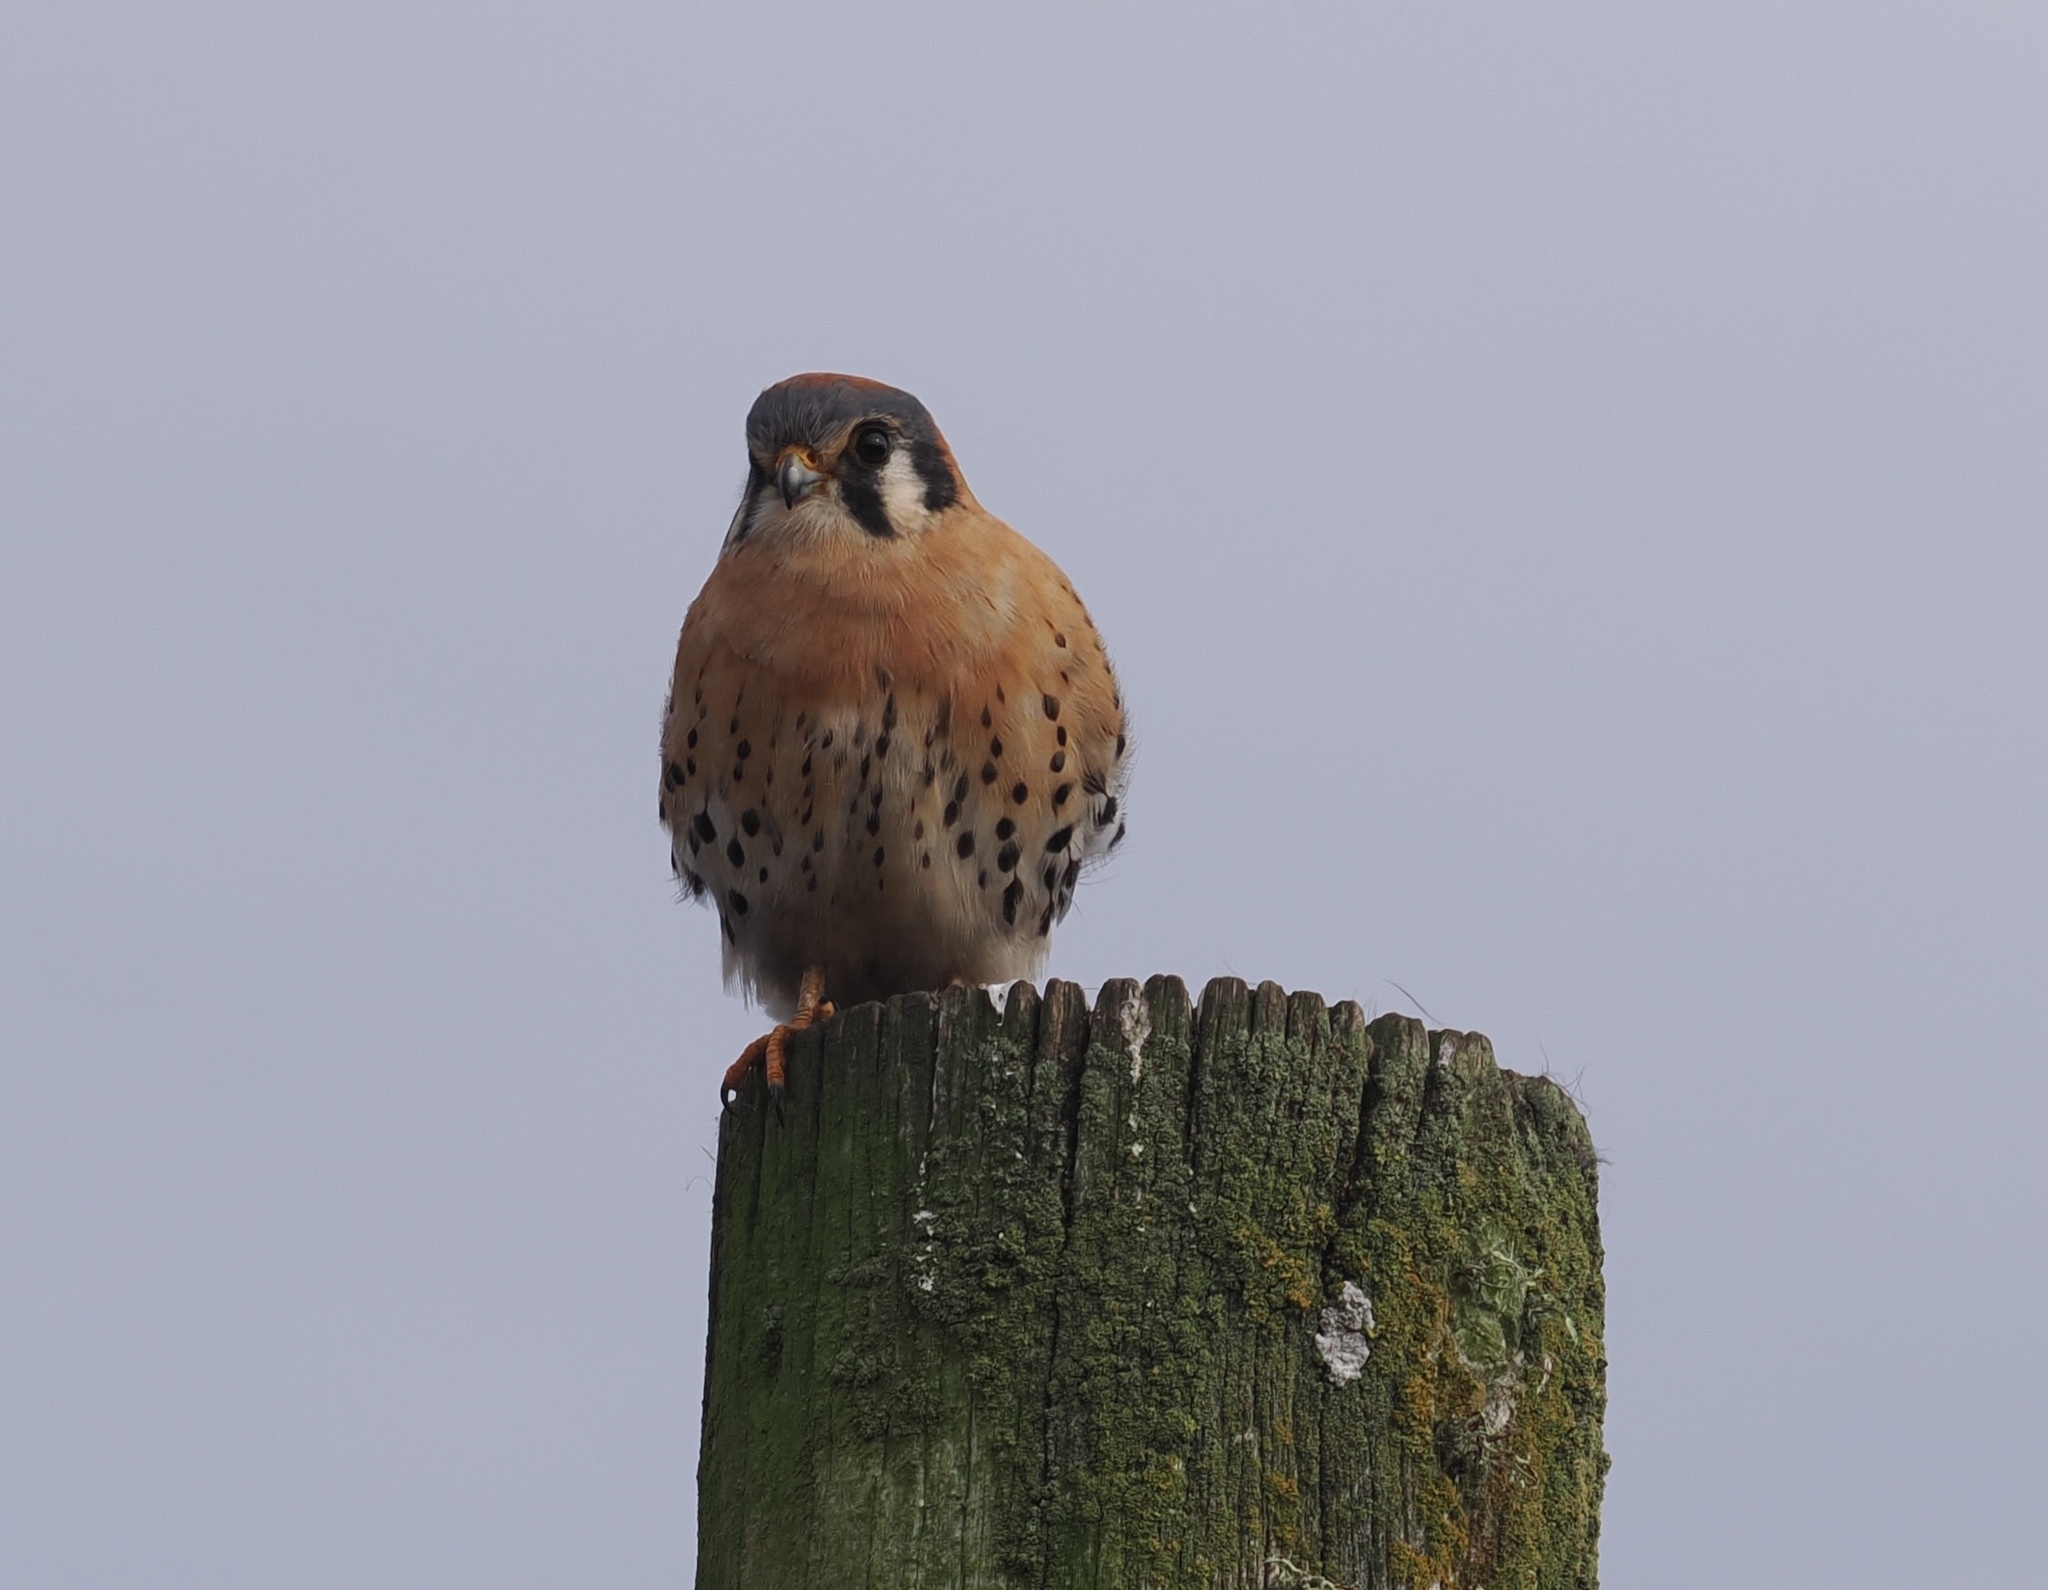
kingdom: Animalia
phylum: Chordata
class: Aves
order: Falconiformes
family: Falconidae
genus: Falco
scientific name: Falco sparverius
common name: American kestrel
